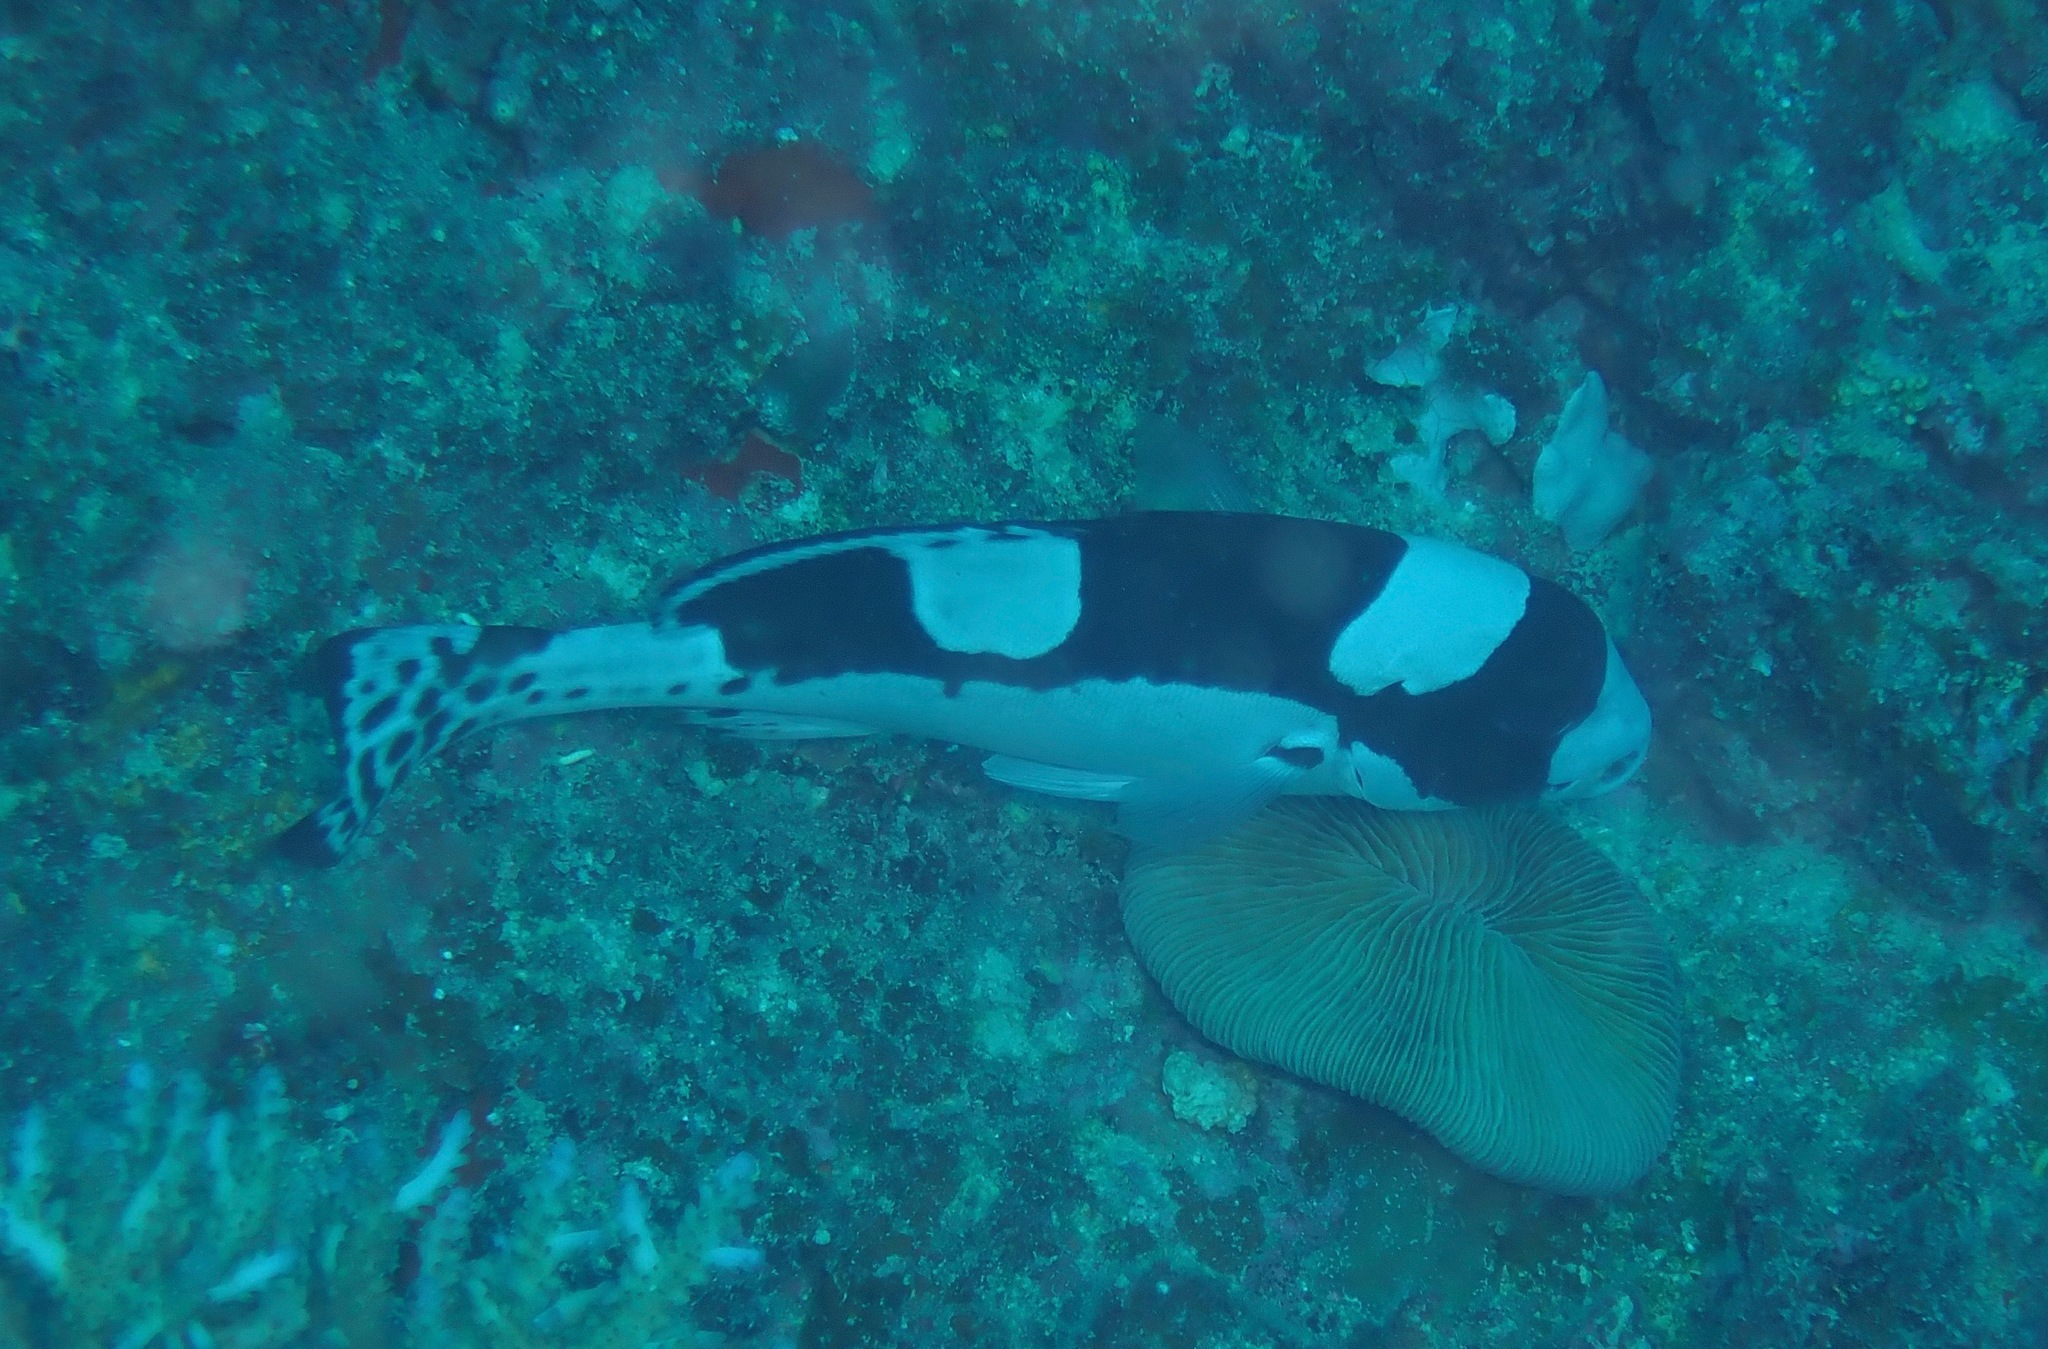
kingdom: Animalia
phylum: Chordata
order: Perciformes
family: Haemulidae
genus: Plectorhinchus
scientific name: Plectorhinchus picus
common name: Spotted sweetlips
